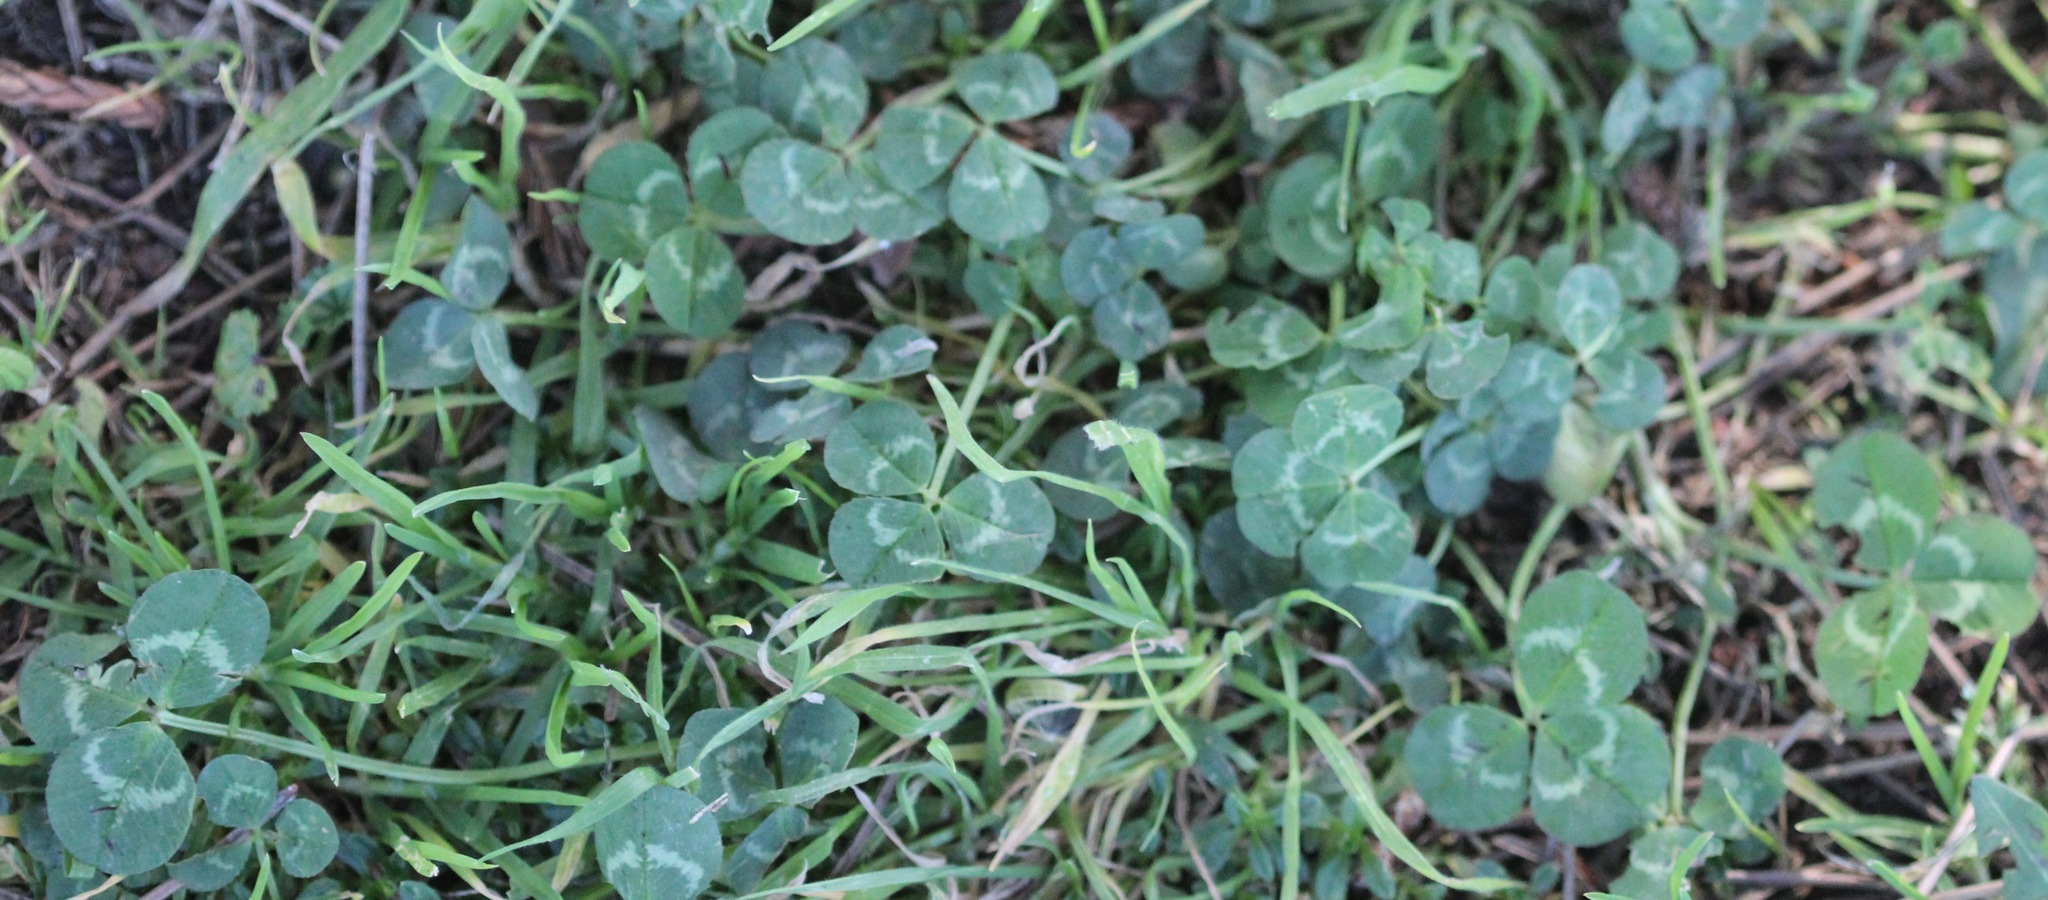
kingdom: Plantae
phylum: Tracheophyta
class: Magnoliopsida
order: Fabales
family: Fabaceae
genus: Trifolium
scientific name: Trifolium repens
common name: White clover
